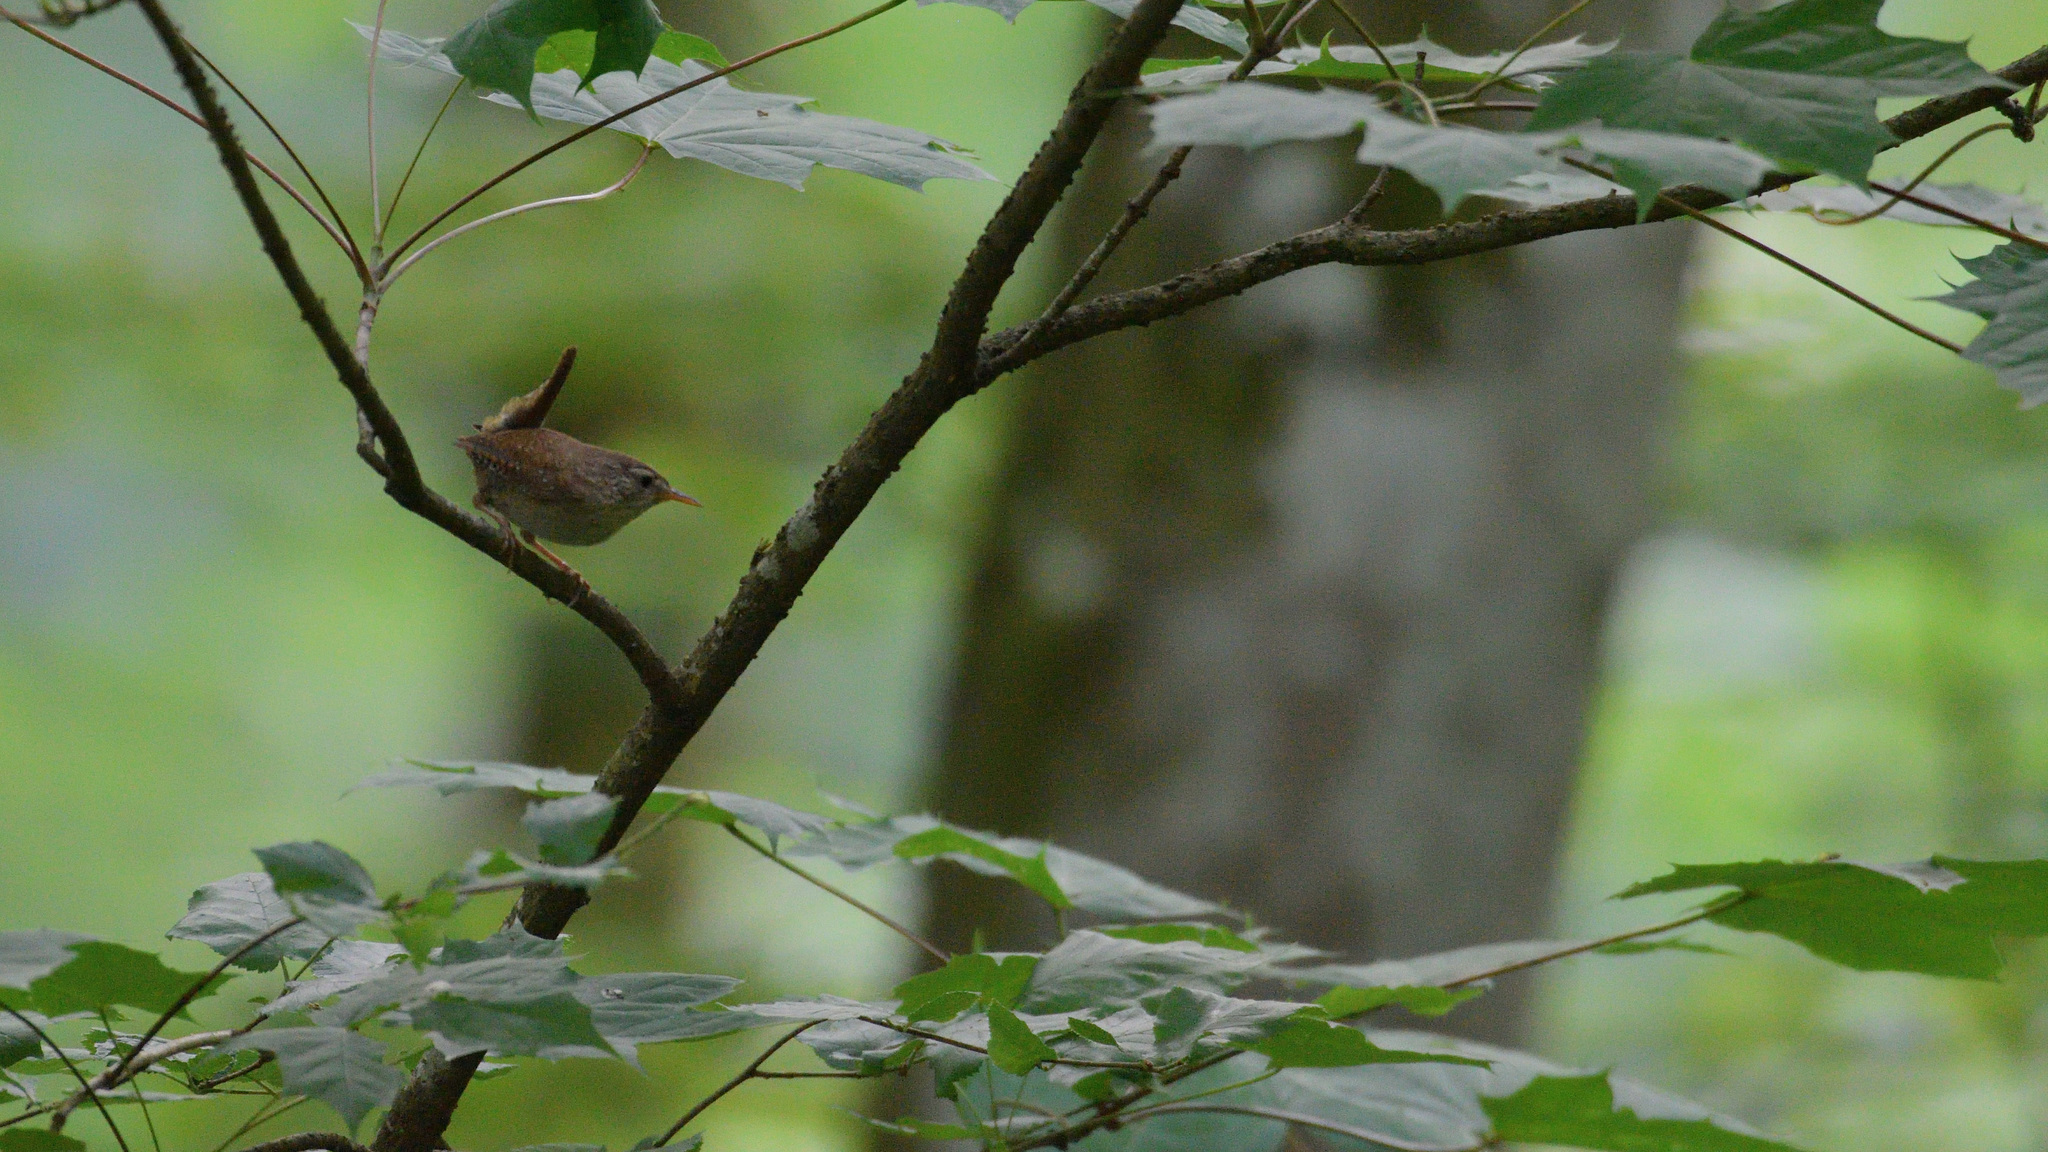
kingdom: Animalia
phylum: Chordata
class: Aves
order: Passeriformes
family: Troglodytidae
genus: Troglodytes
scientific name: Troglodytes troglodytes
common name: Eurasian wren
